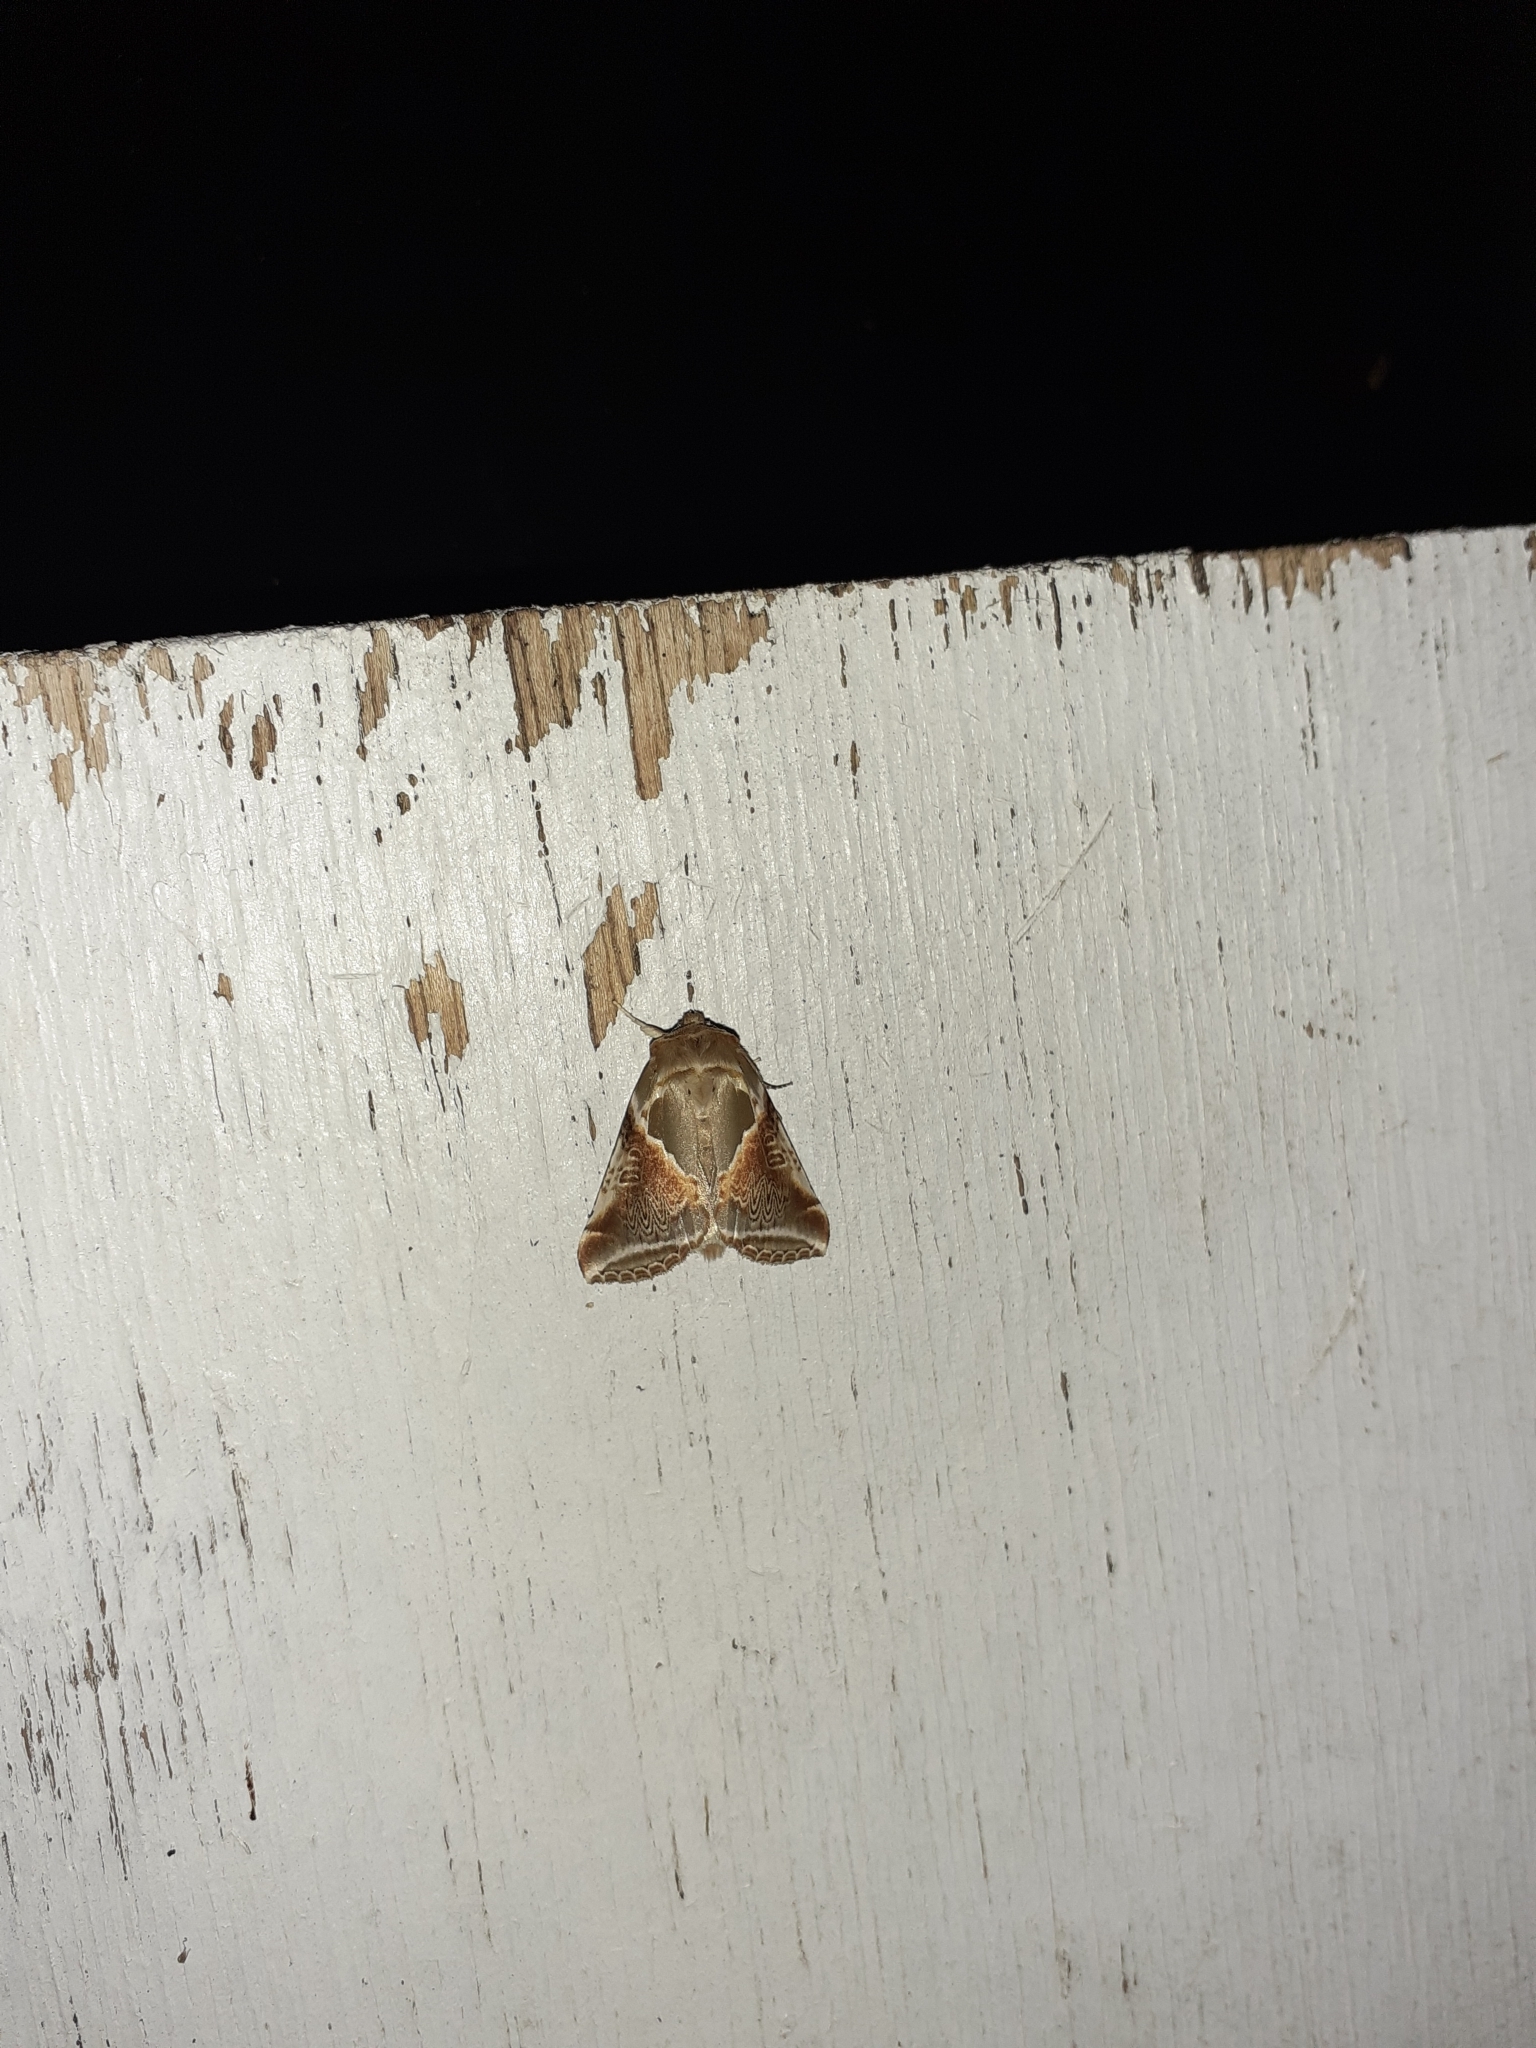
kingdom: Animalia
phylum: Arthropoda
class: Insecta
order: Lepidoptera
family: Drepanidae
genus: Habrosyne
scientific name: Habrosyne pyritoides
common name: Buff arches
